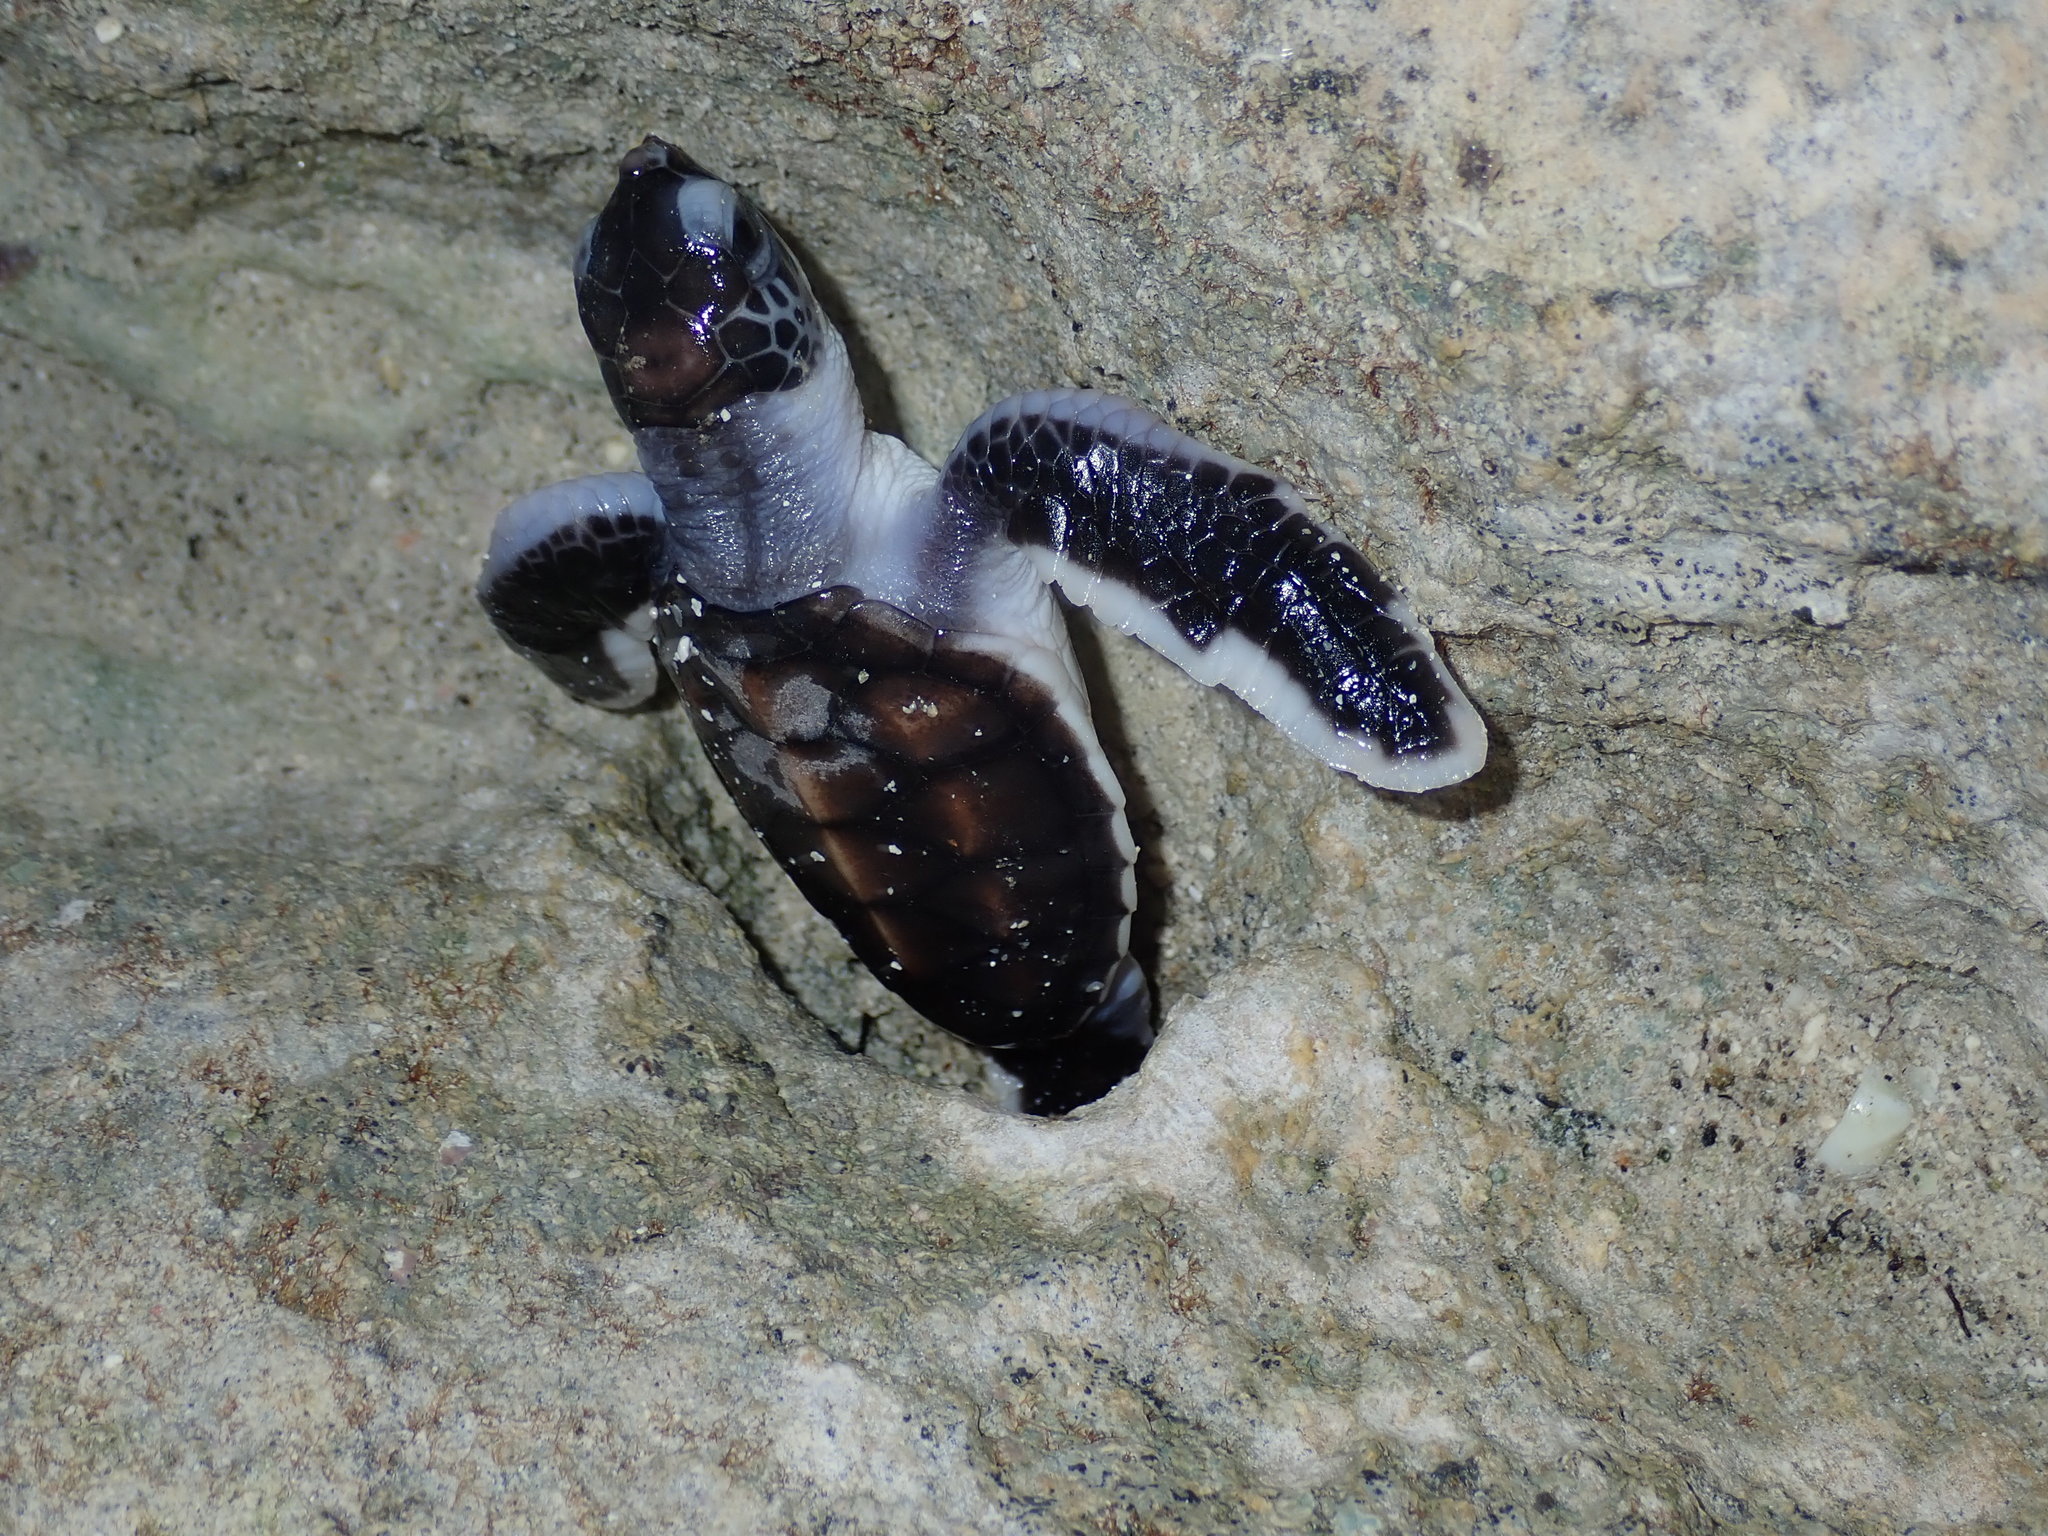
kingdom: Animalia
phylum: Chordata
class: Testudines
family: Cheloniidae
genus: Chelonia
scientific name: Chelonia mydas
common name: Green turtle
